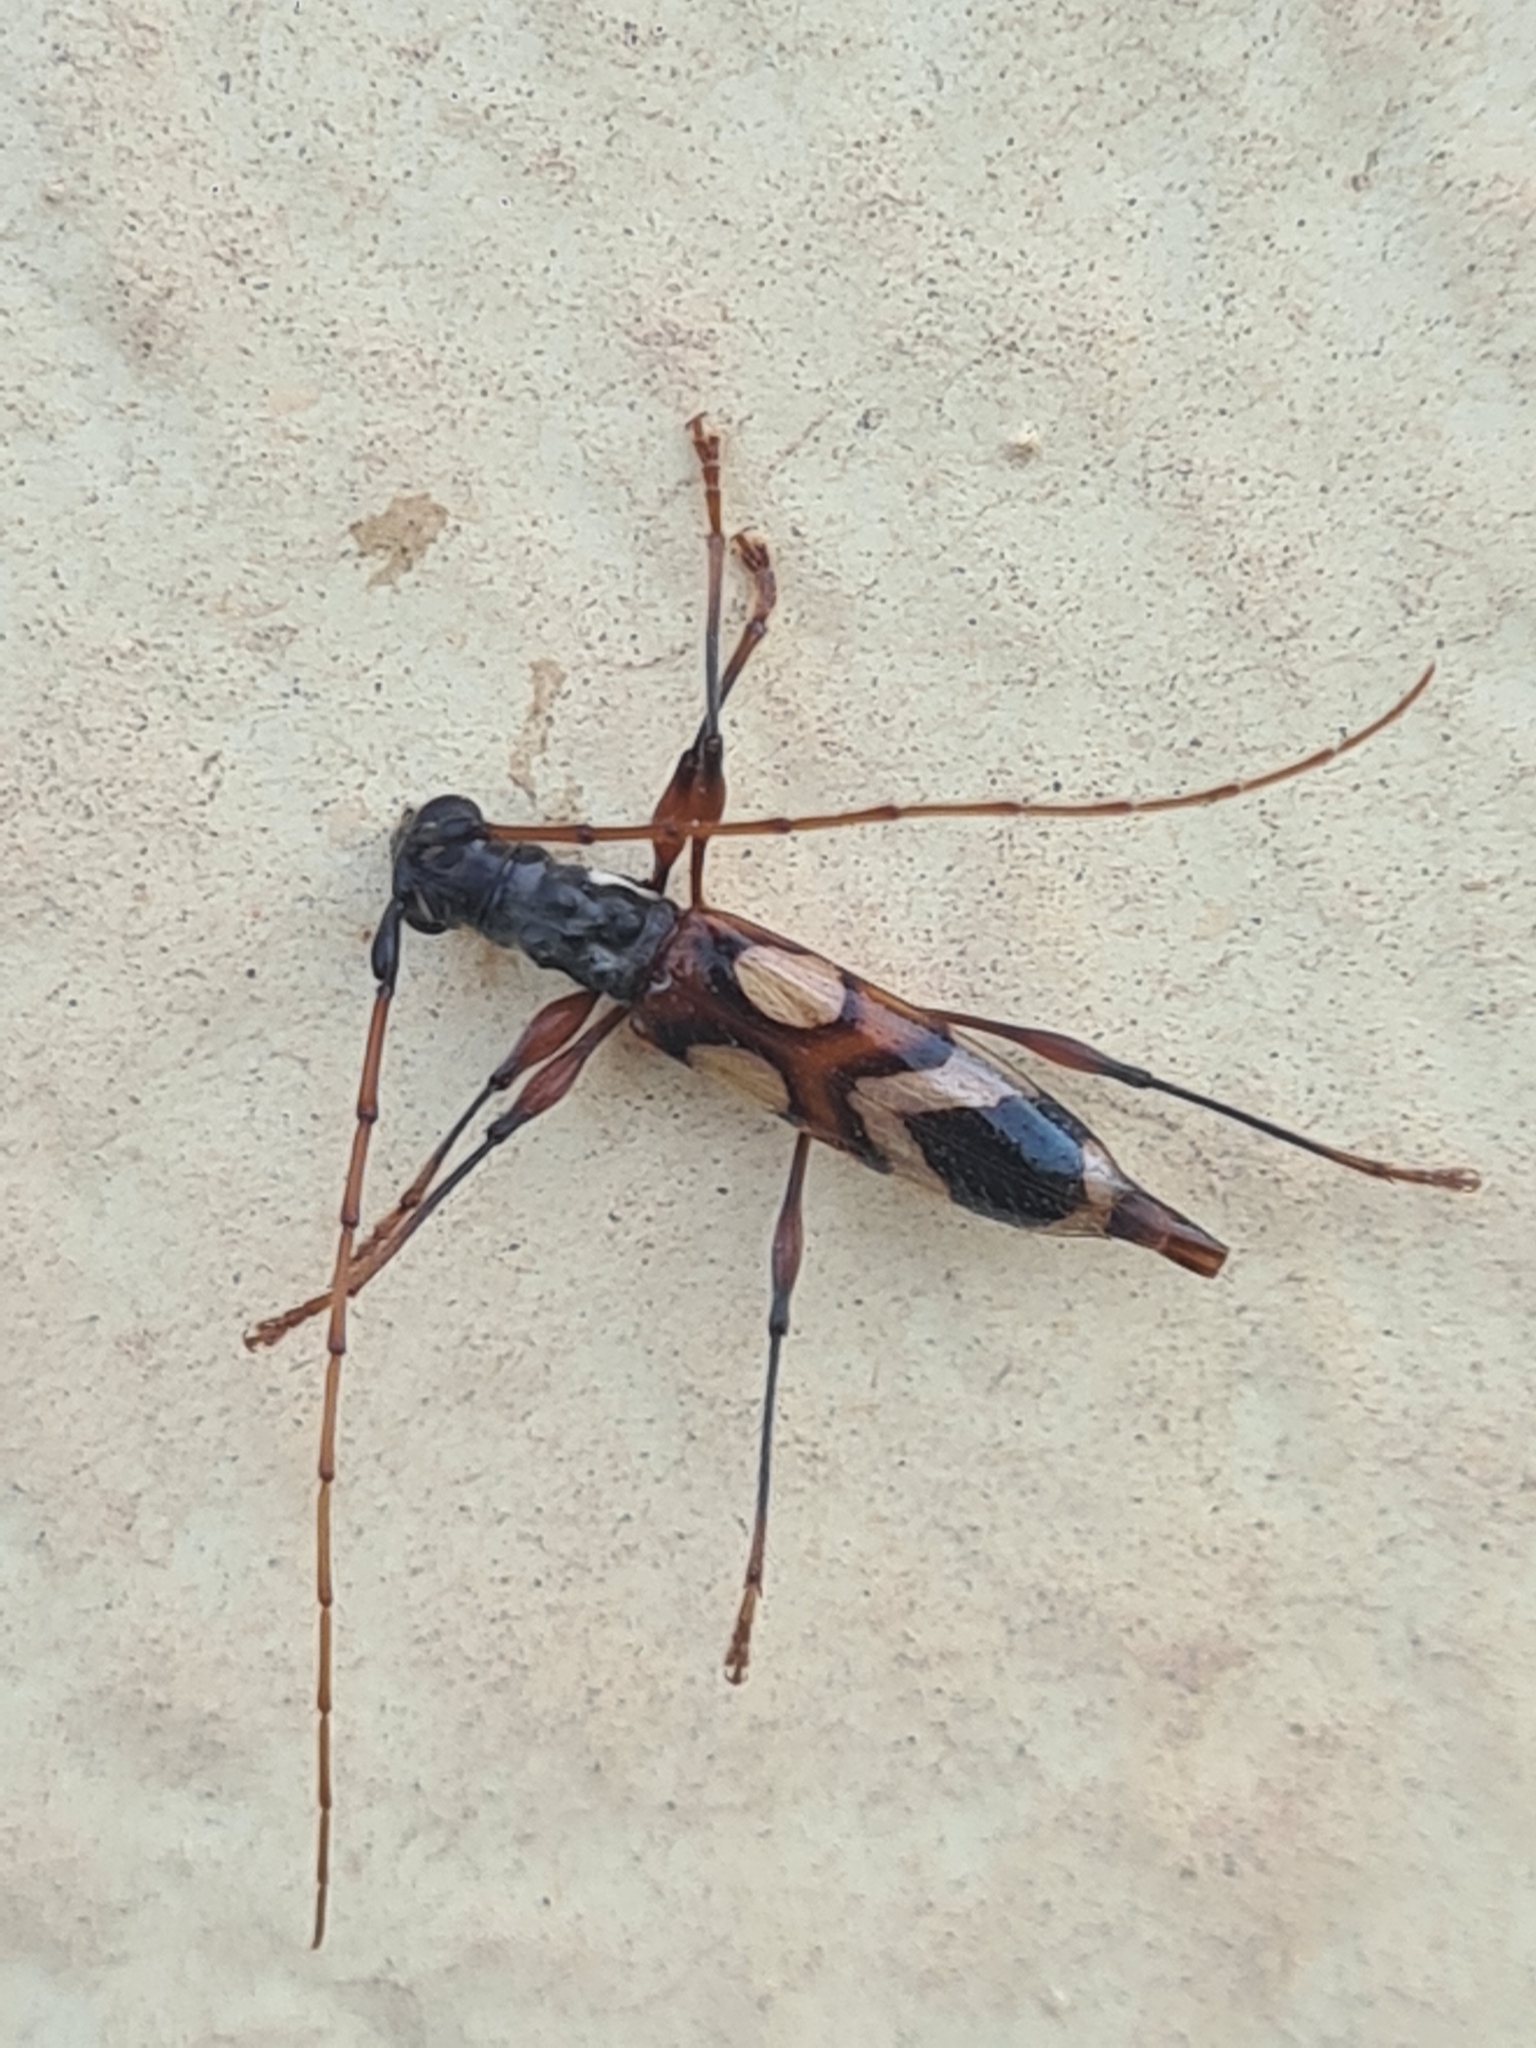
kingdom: Animalia
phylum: Arthropoda
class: Insecta
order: Coleoptera
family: Cerambycidae
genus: Compsibidion
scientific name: Compsibidion maronicum
